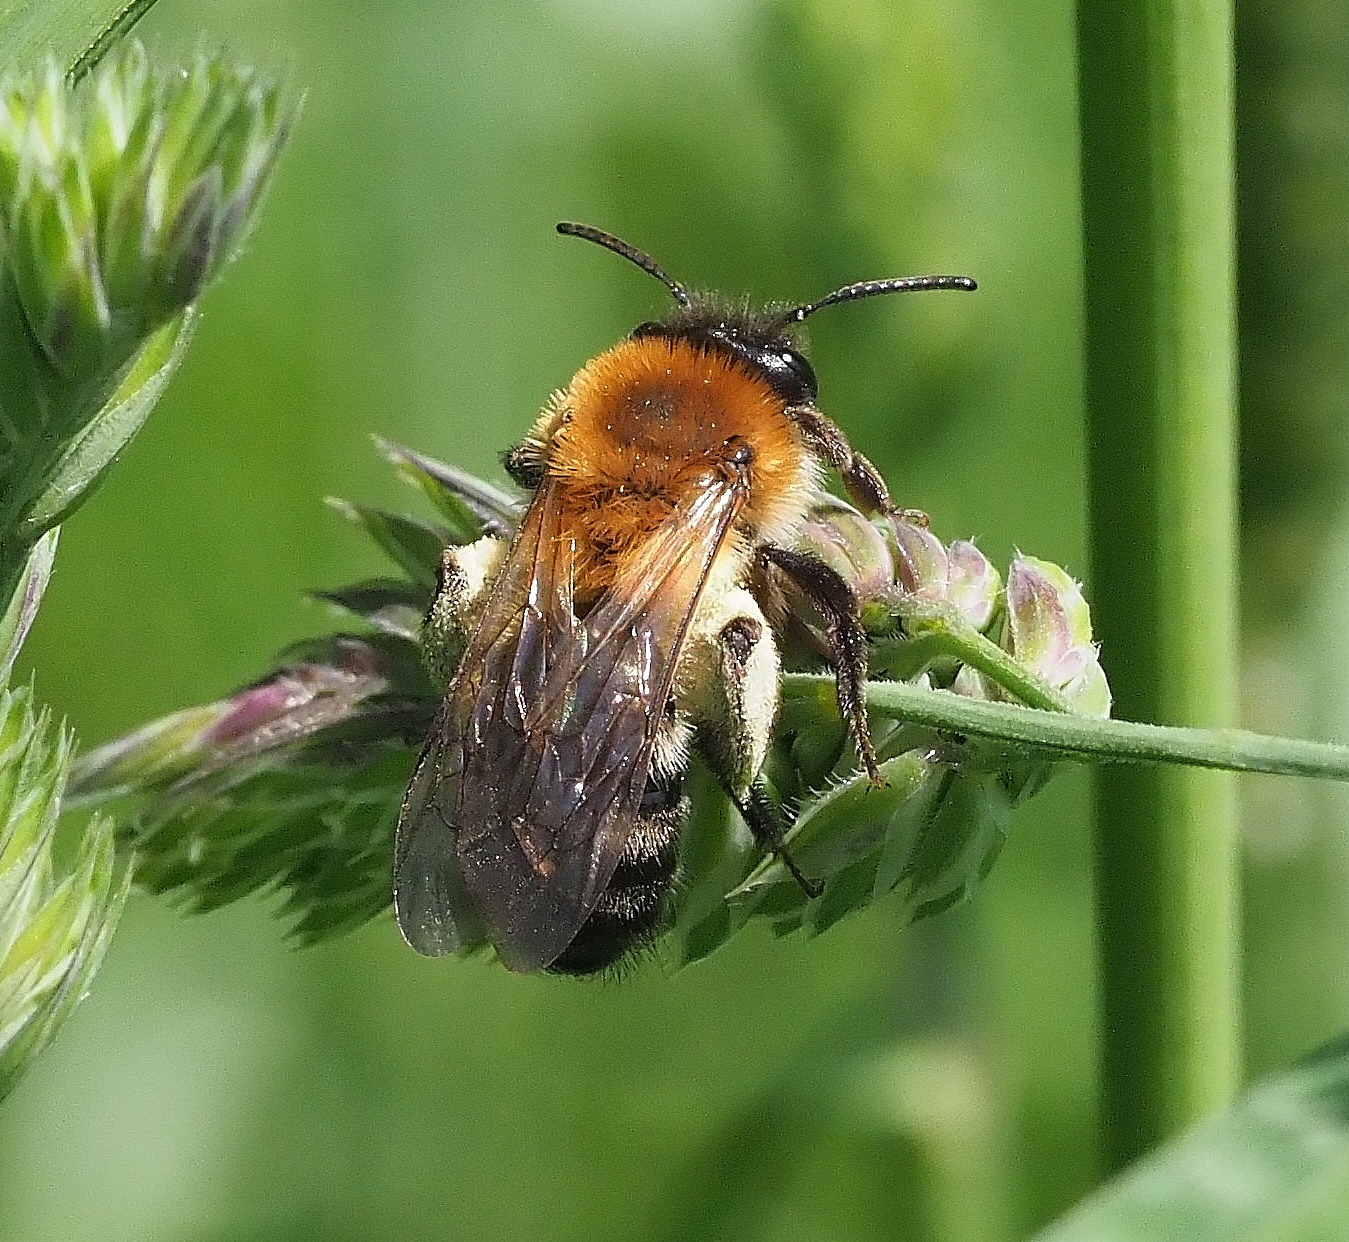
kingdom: Animalia
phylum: Arthropoda
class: Insecta
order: Hymenoptera
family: Andrenidae
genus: Andrena
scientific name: Andrena nitida
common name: Grey-patched mining bee
